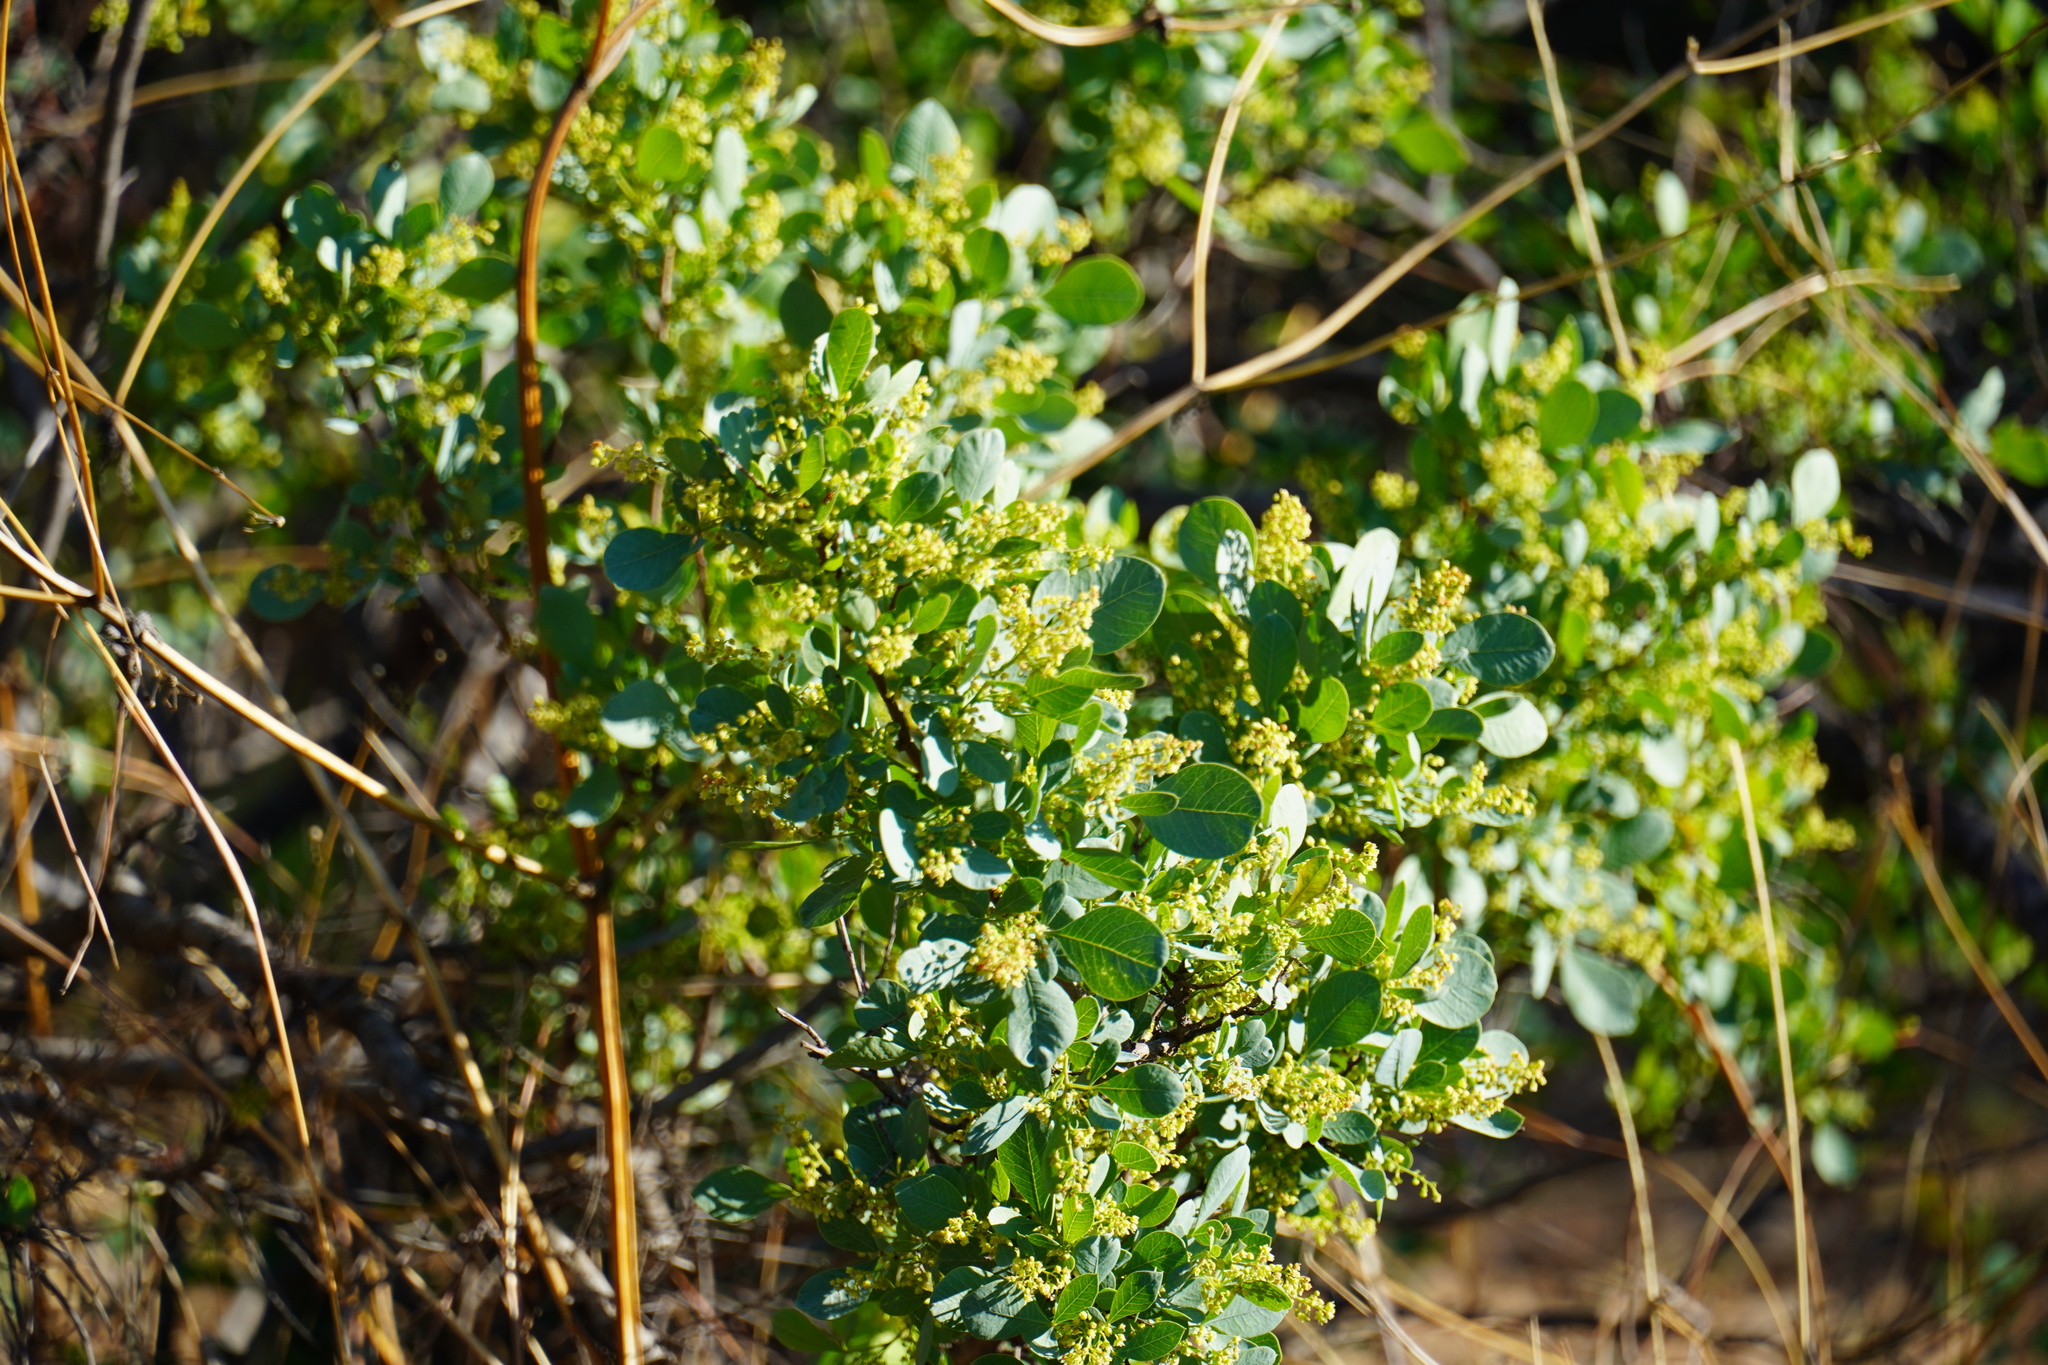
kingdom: Plantae
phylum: Tracheophyta
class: Magnoliopsida
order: Sapindales
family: Anacardiaceae
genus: Searsia
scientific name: Searsia zeyheri
